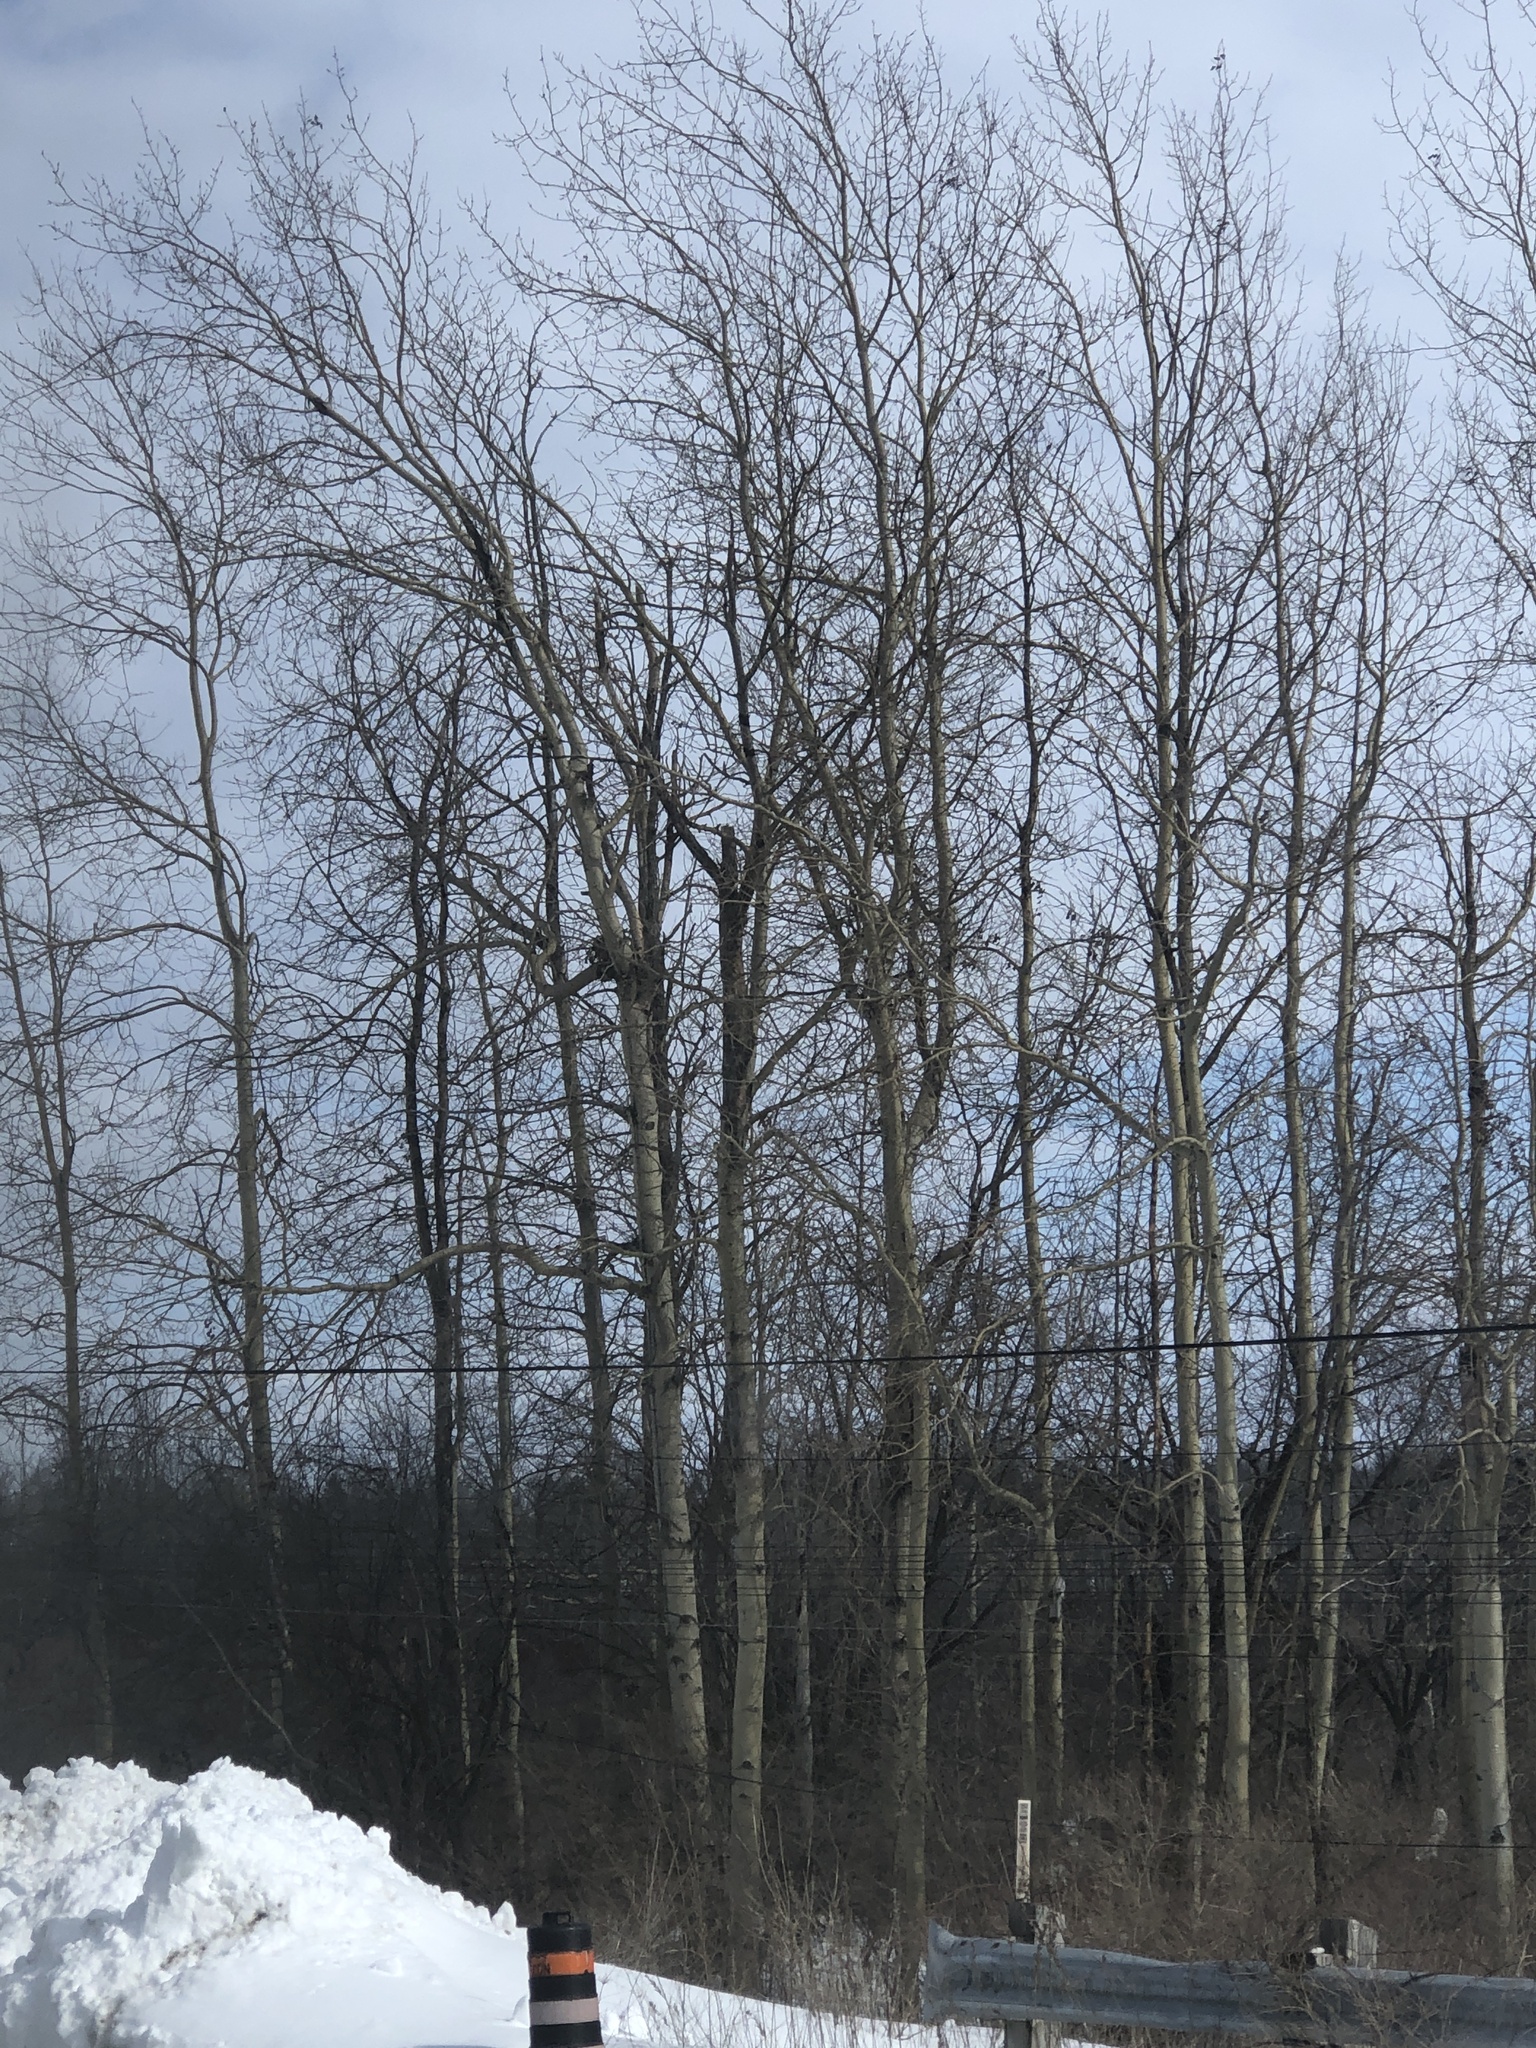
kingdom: Plantae
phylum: Tracheophyta
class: Magnoliopsida
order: Malpighiales
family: Salicaceae
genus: Populus
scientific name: Populus tremuloides
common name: Quaking aspen
